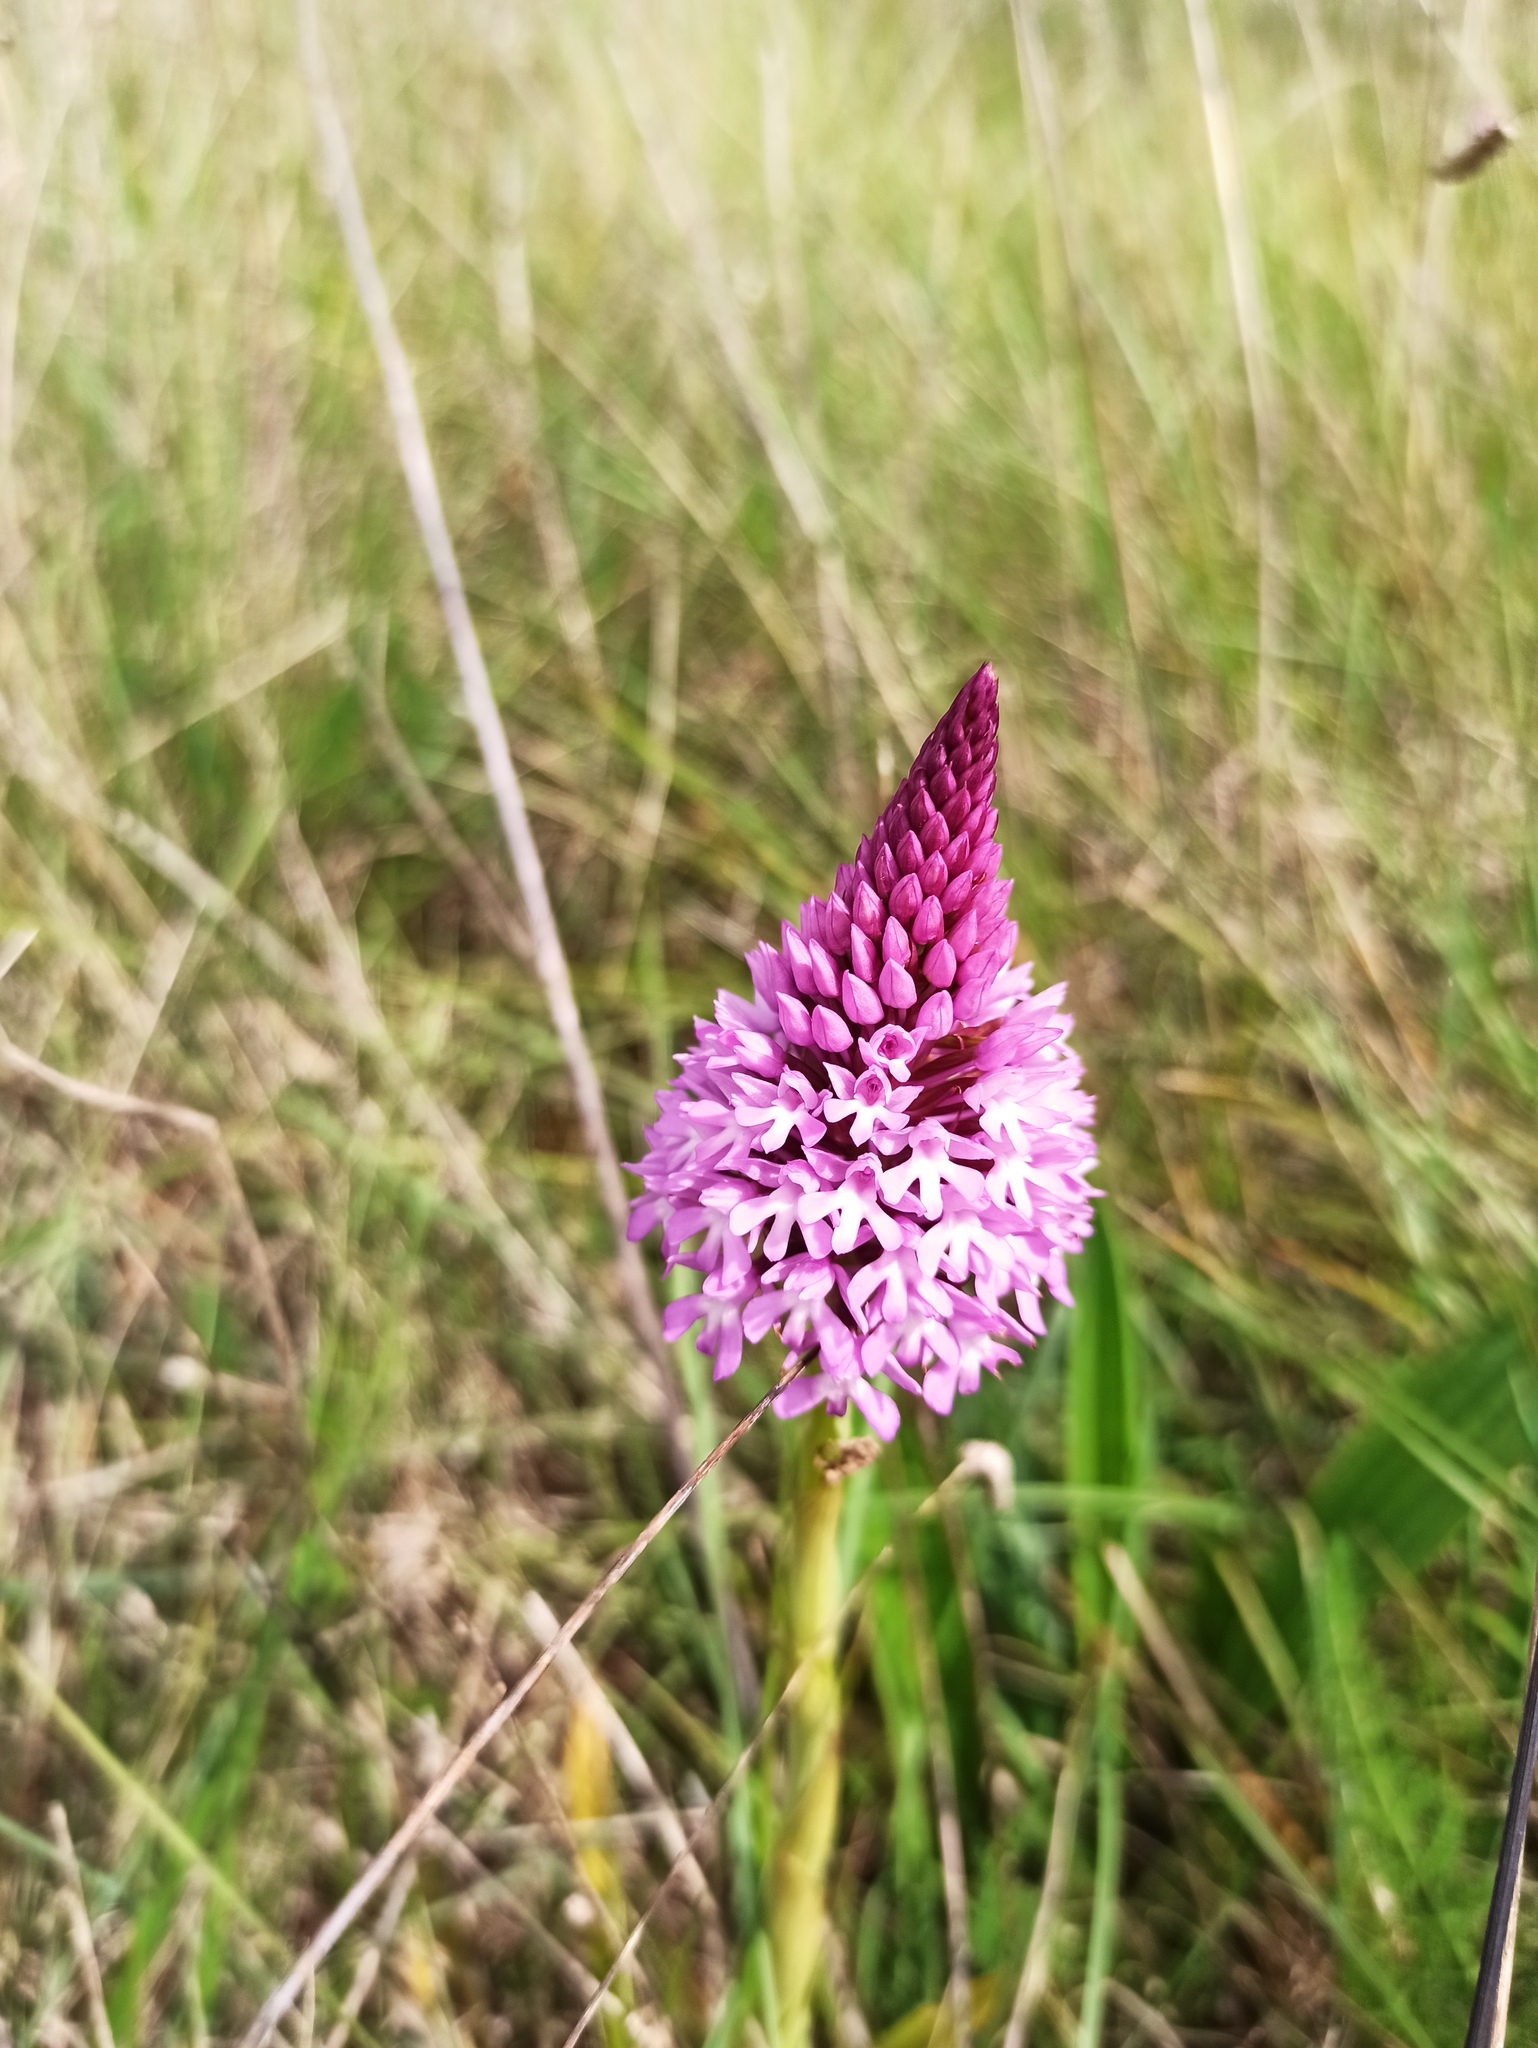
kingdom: Plantae
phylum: Tracheophyta
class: Liliopsida
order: Asparagales
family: Orchidaceae
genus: Anacamptis
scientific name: Anacamptis pyramidalis
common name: Pyramidal orchid
